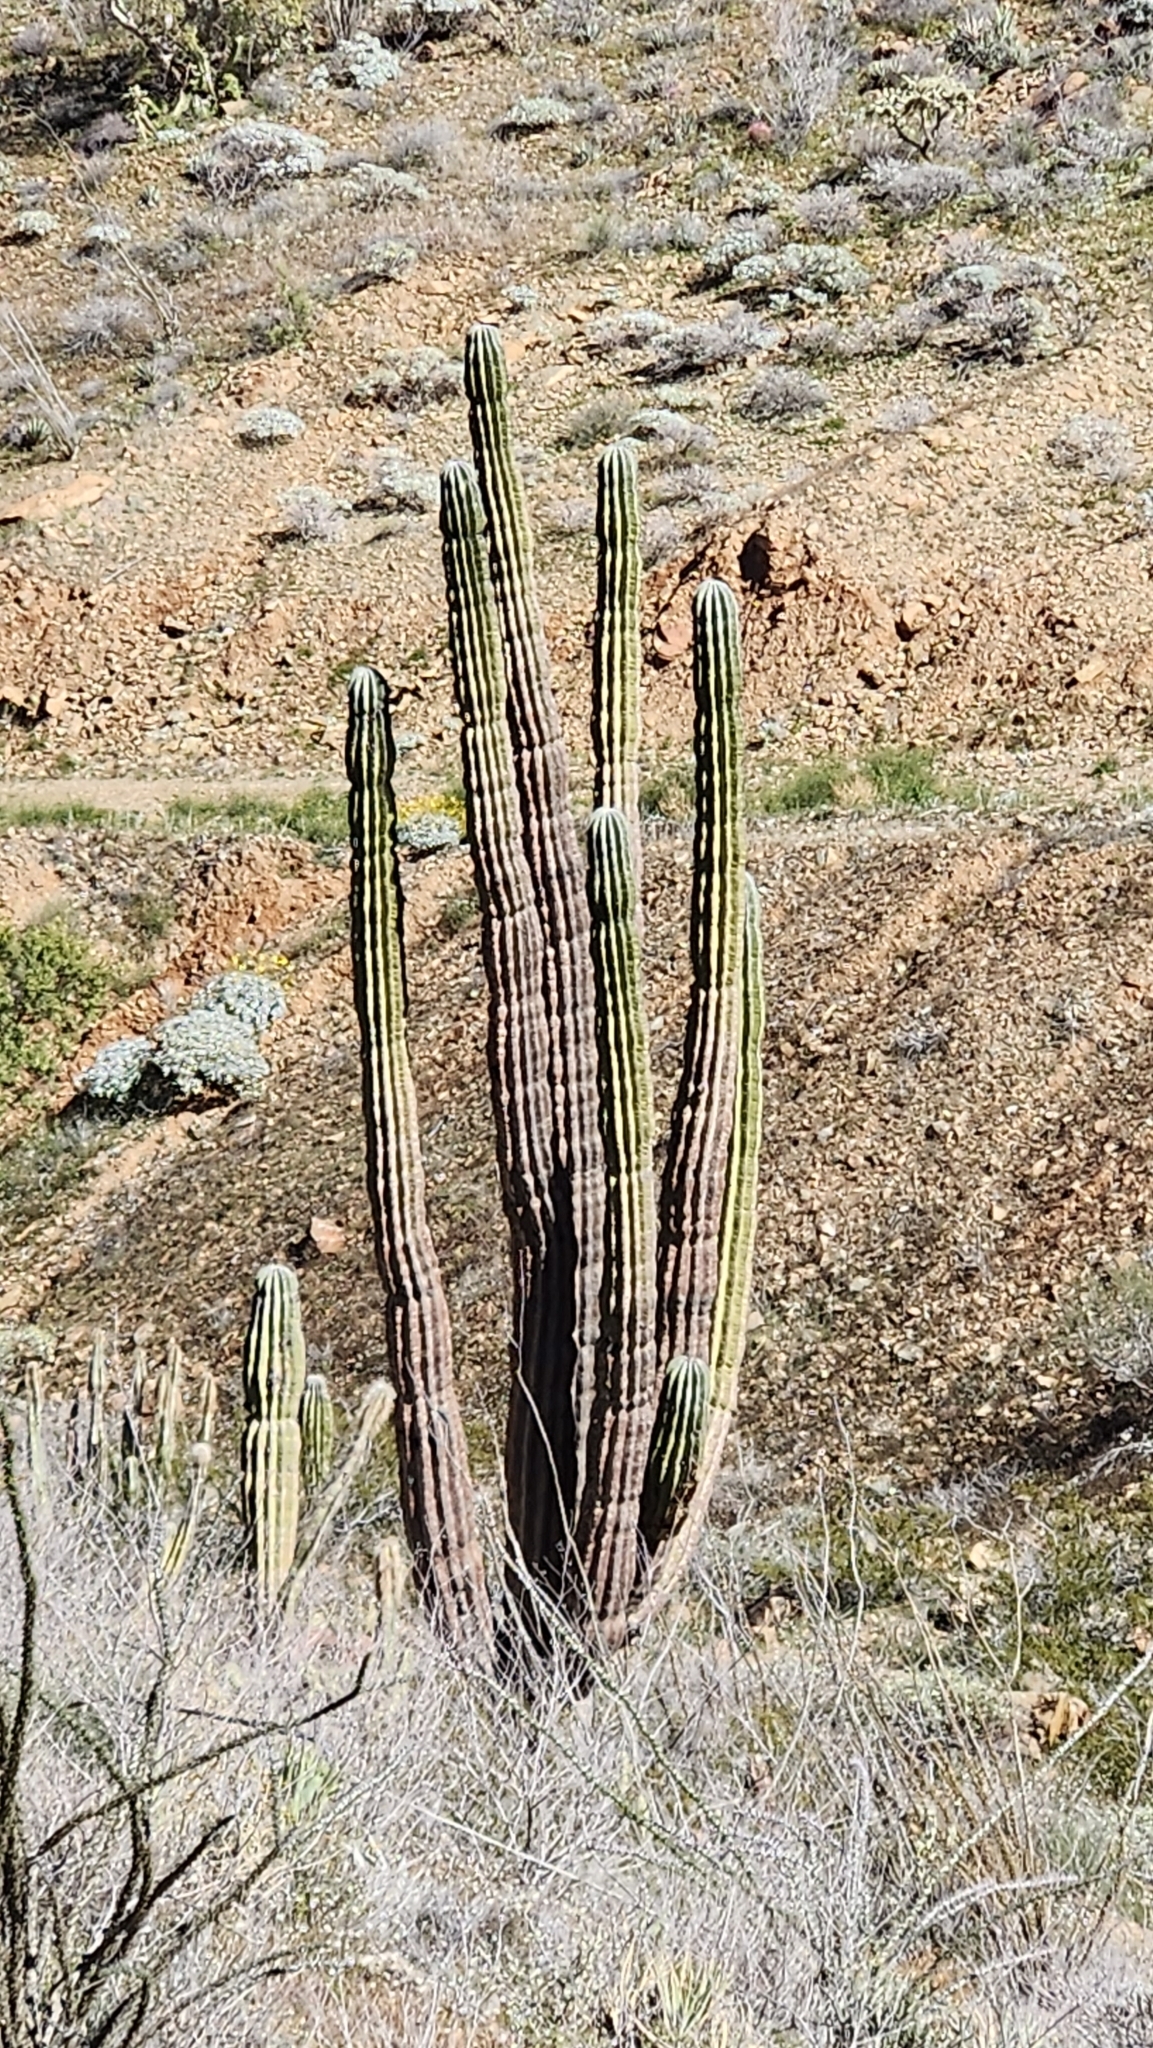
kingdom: Plantae
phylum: Tracheophyta
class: Magnoliopsida
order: Caryophyllales
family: Cactaceae
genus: Pachycereus
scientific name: Pachycereus pringlei
